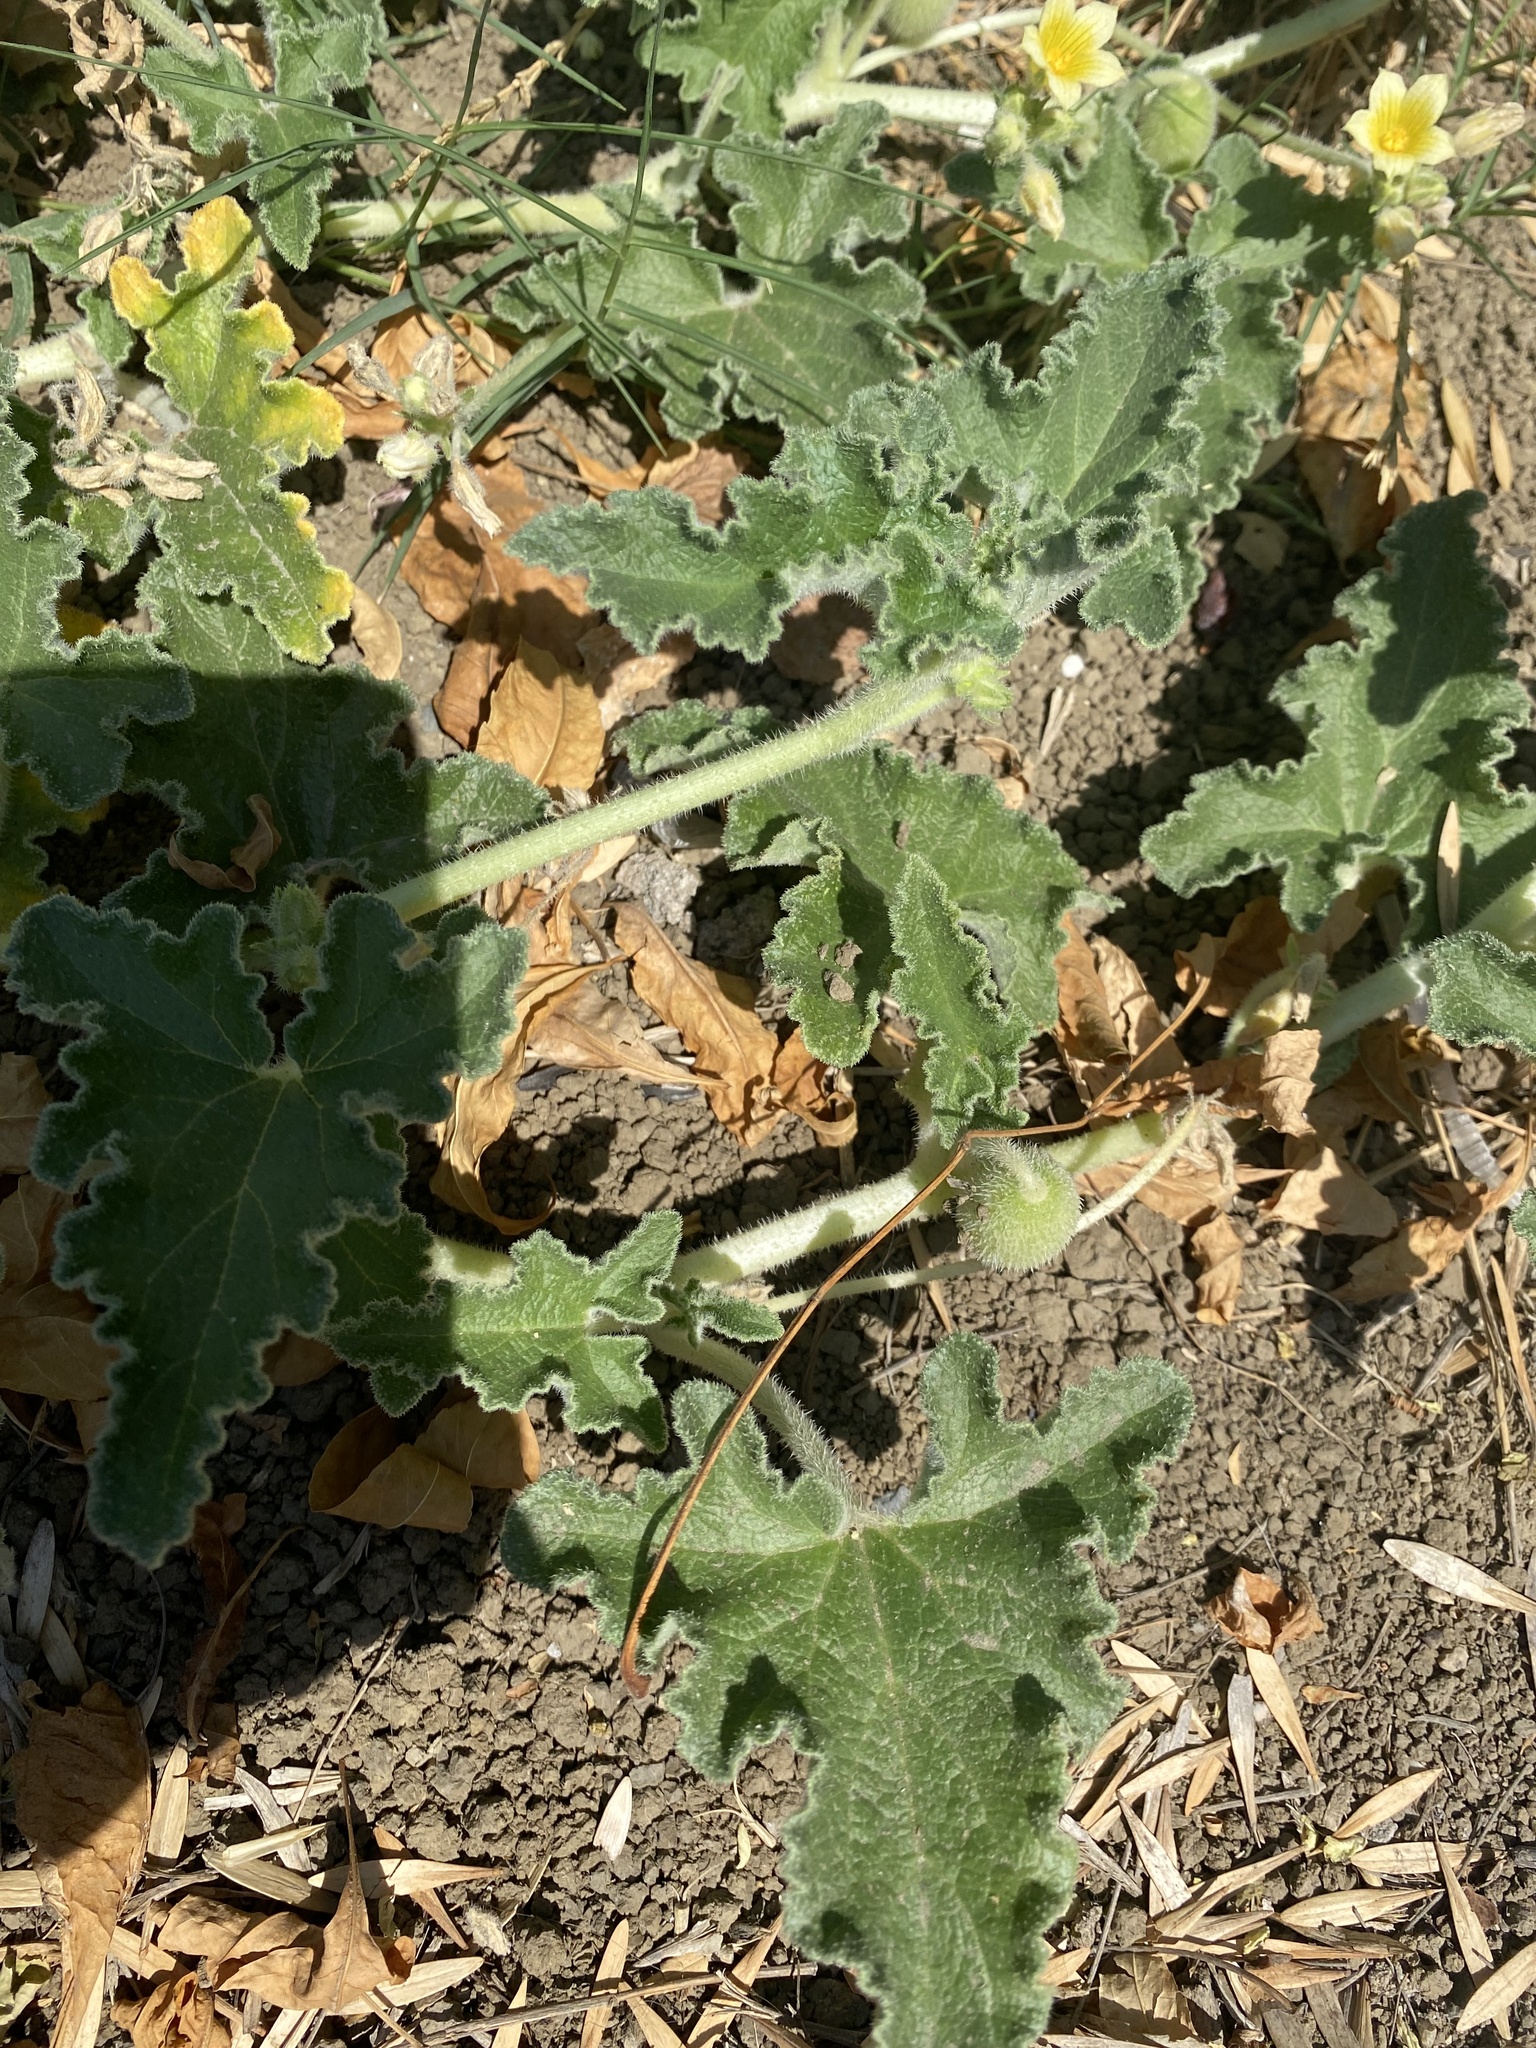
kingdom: Plantae
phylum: Tracheophyta
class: Magnoliopsida
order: Cucurbitales
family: Cucurbitaceae
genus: Ecballium
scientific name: Ecballium elaterium
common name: Squirting cucumber
